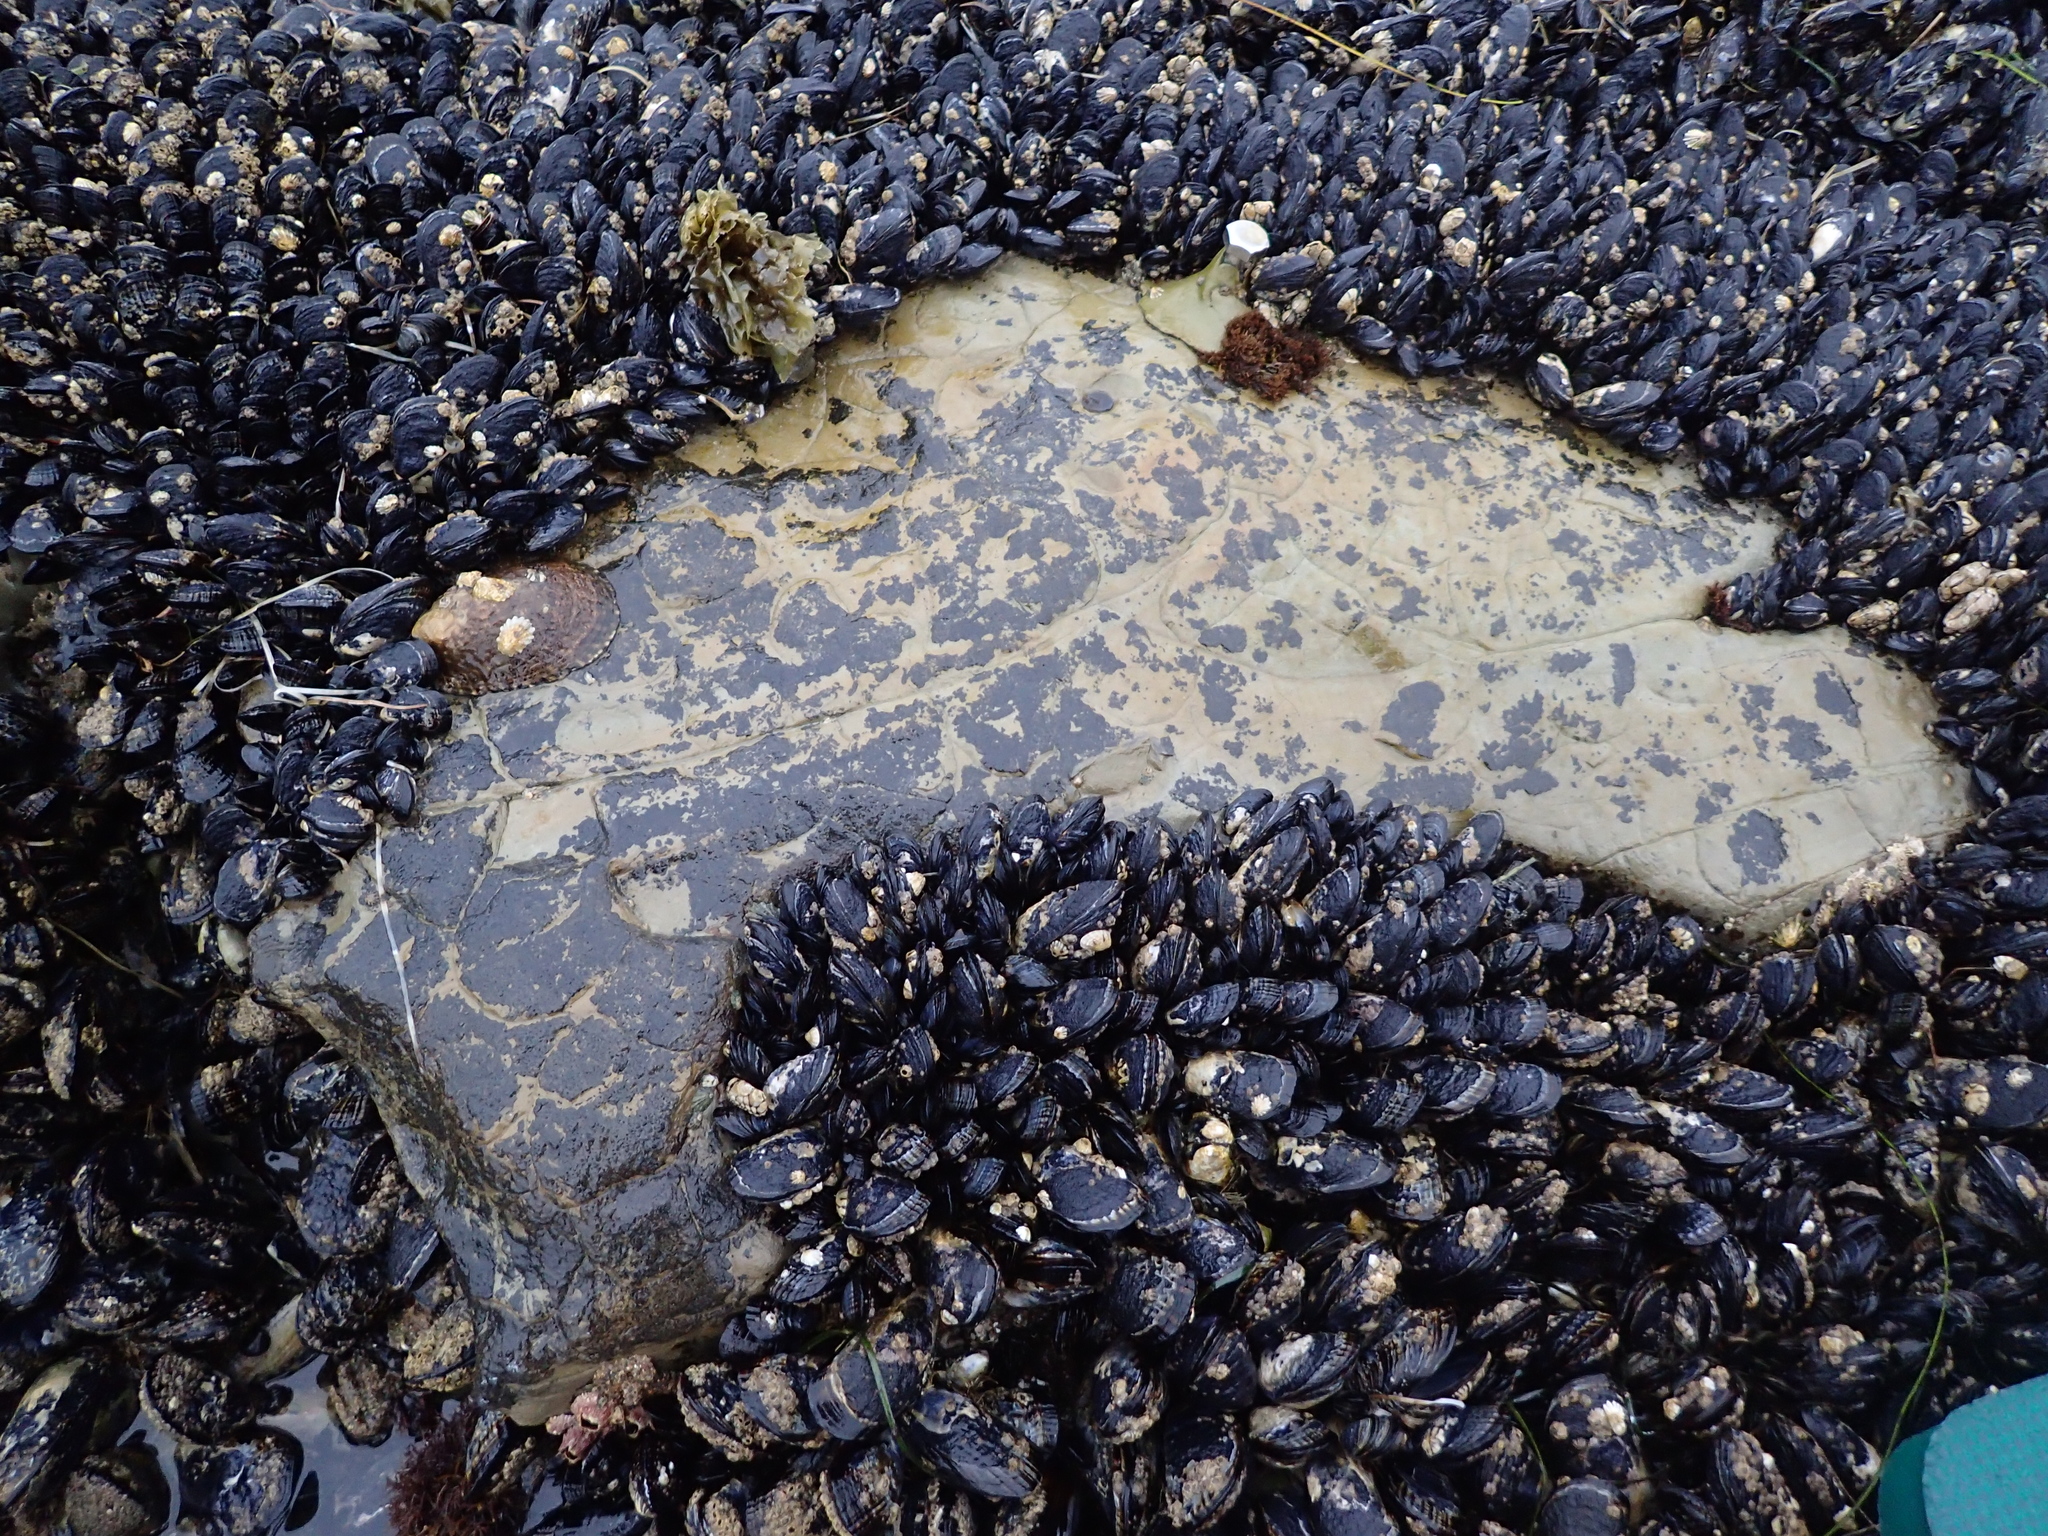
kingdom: Animalia
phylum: Mollusca
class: Gastropoda
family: Lottiidae
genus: Lottia
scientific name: Lottia gigantea
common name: Owl limpet
